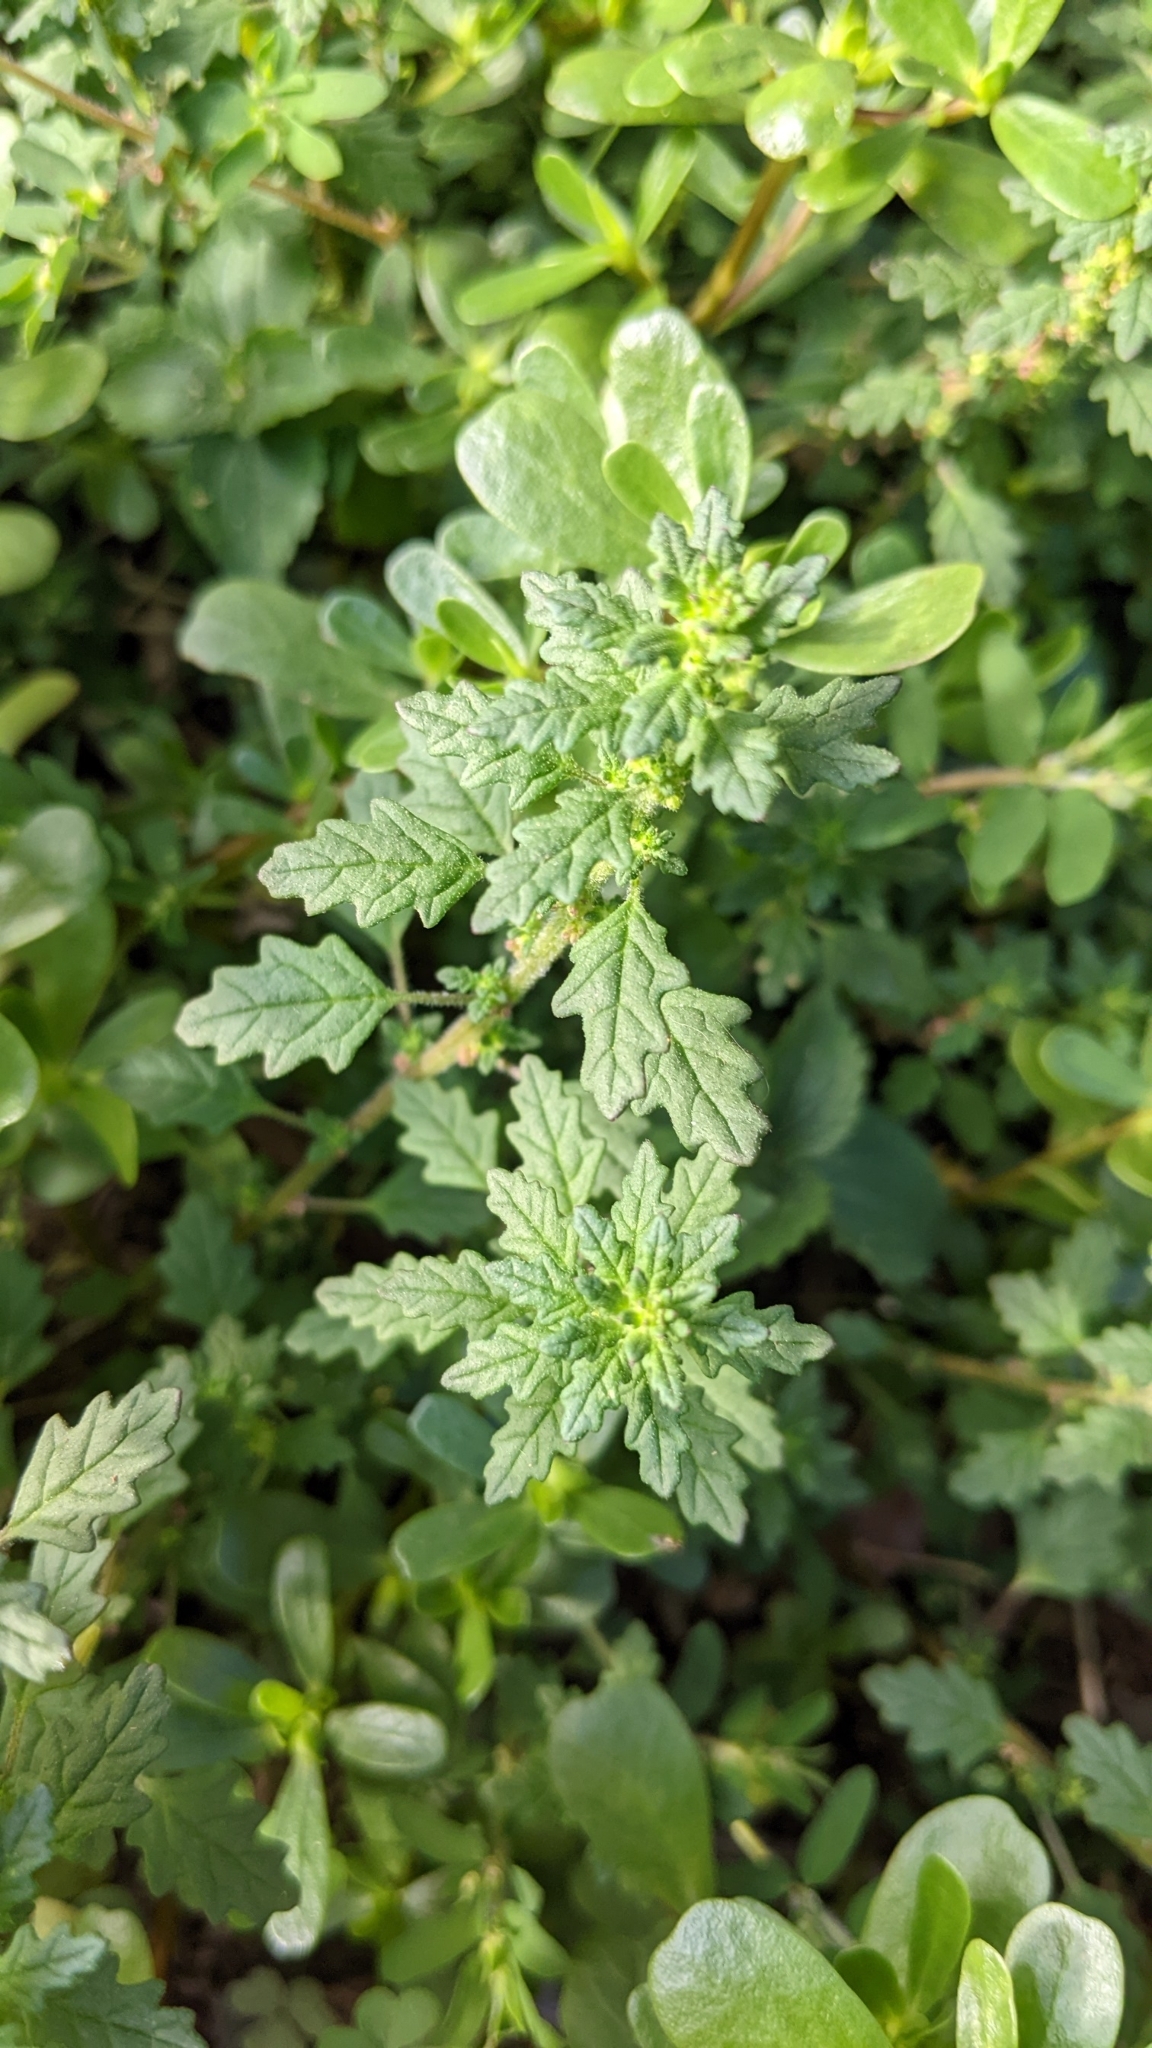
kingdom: Plantae
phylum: Tracheophyta
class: Magnoliopsida
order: Caryophyllales
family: Amaranthaceae
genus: Dysphania
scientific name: Dysphania pumilio
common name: Clammy goosefoot
